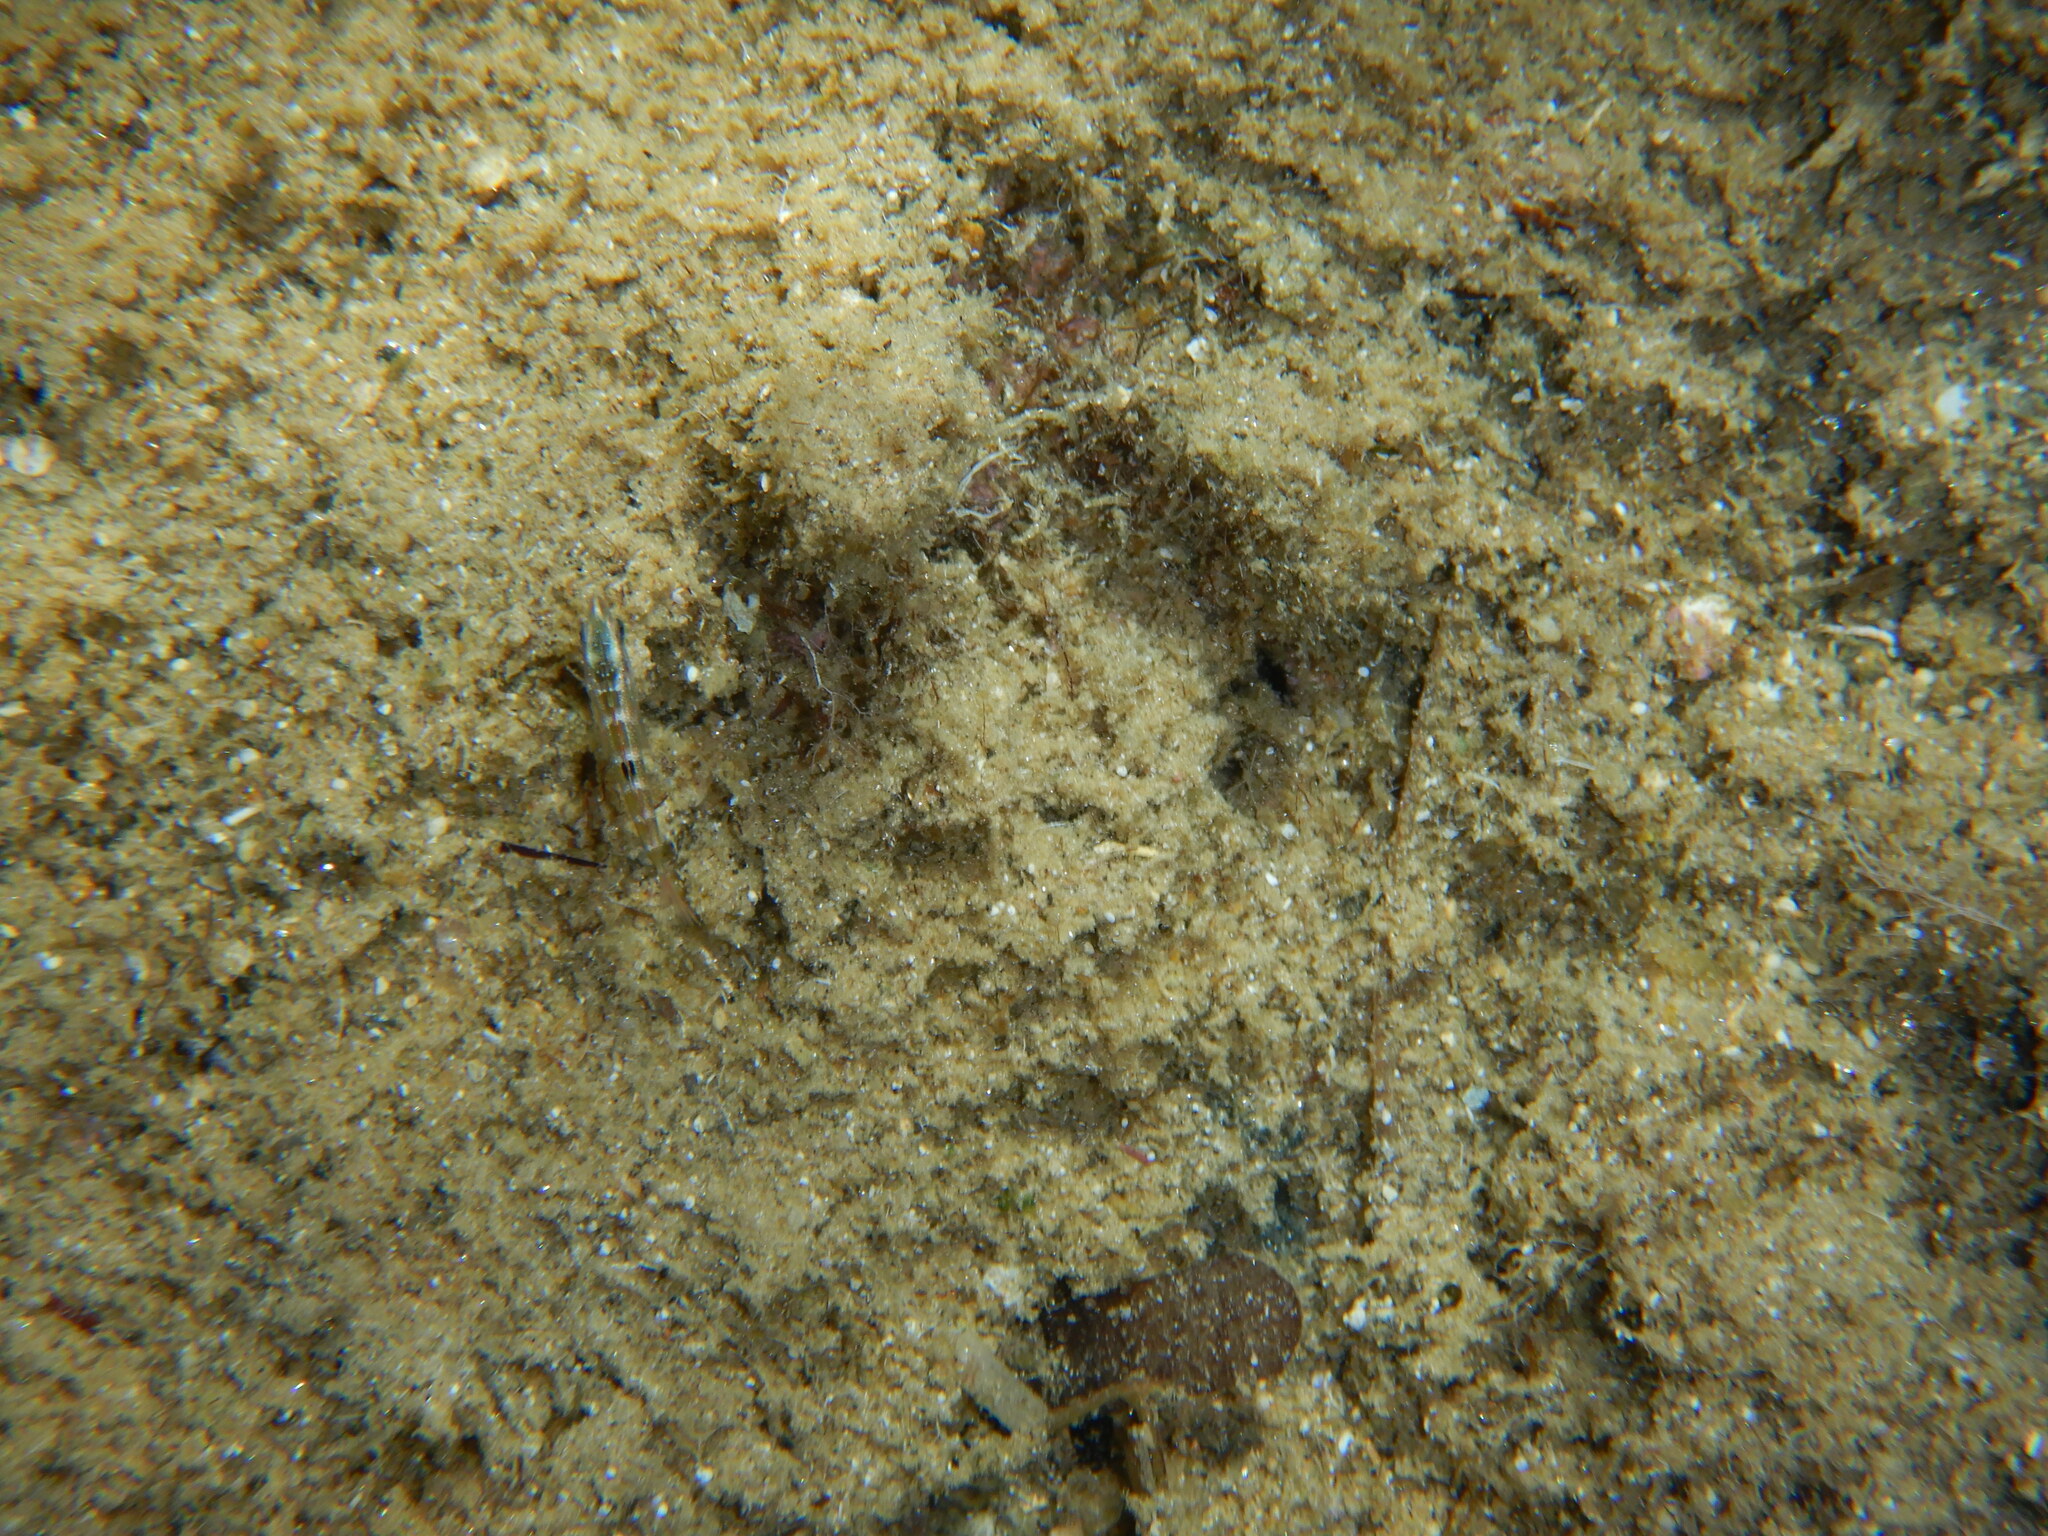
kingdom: Animalia
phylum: Chordata
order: Perciformes
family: Labridae
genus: Thalassoma
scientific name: Thalassoma pavo
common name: Ornate wrasse
